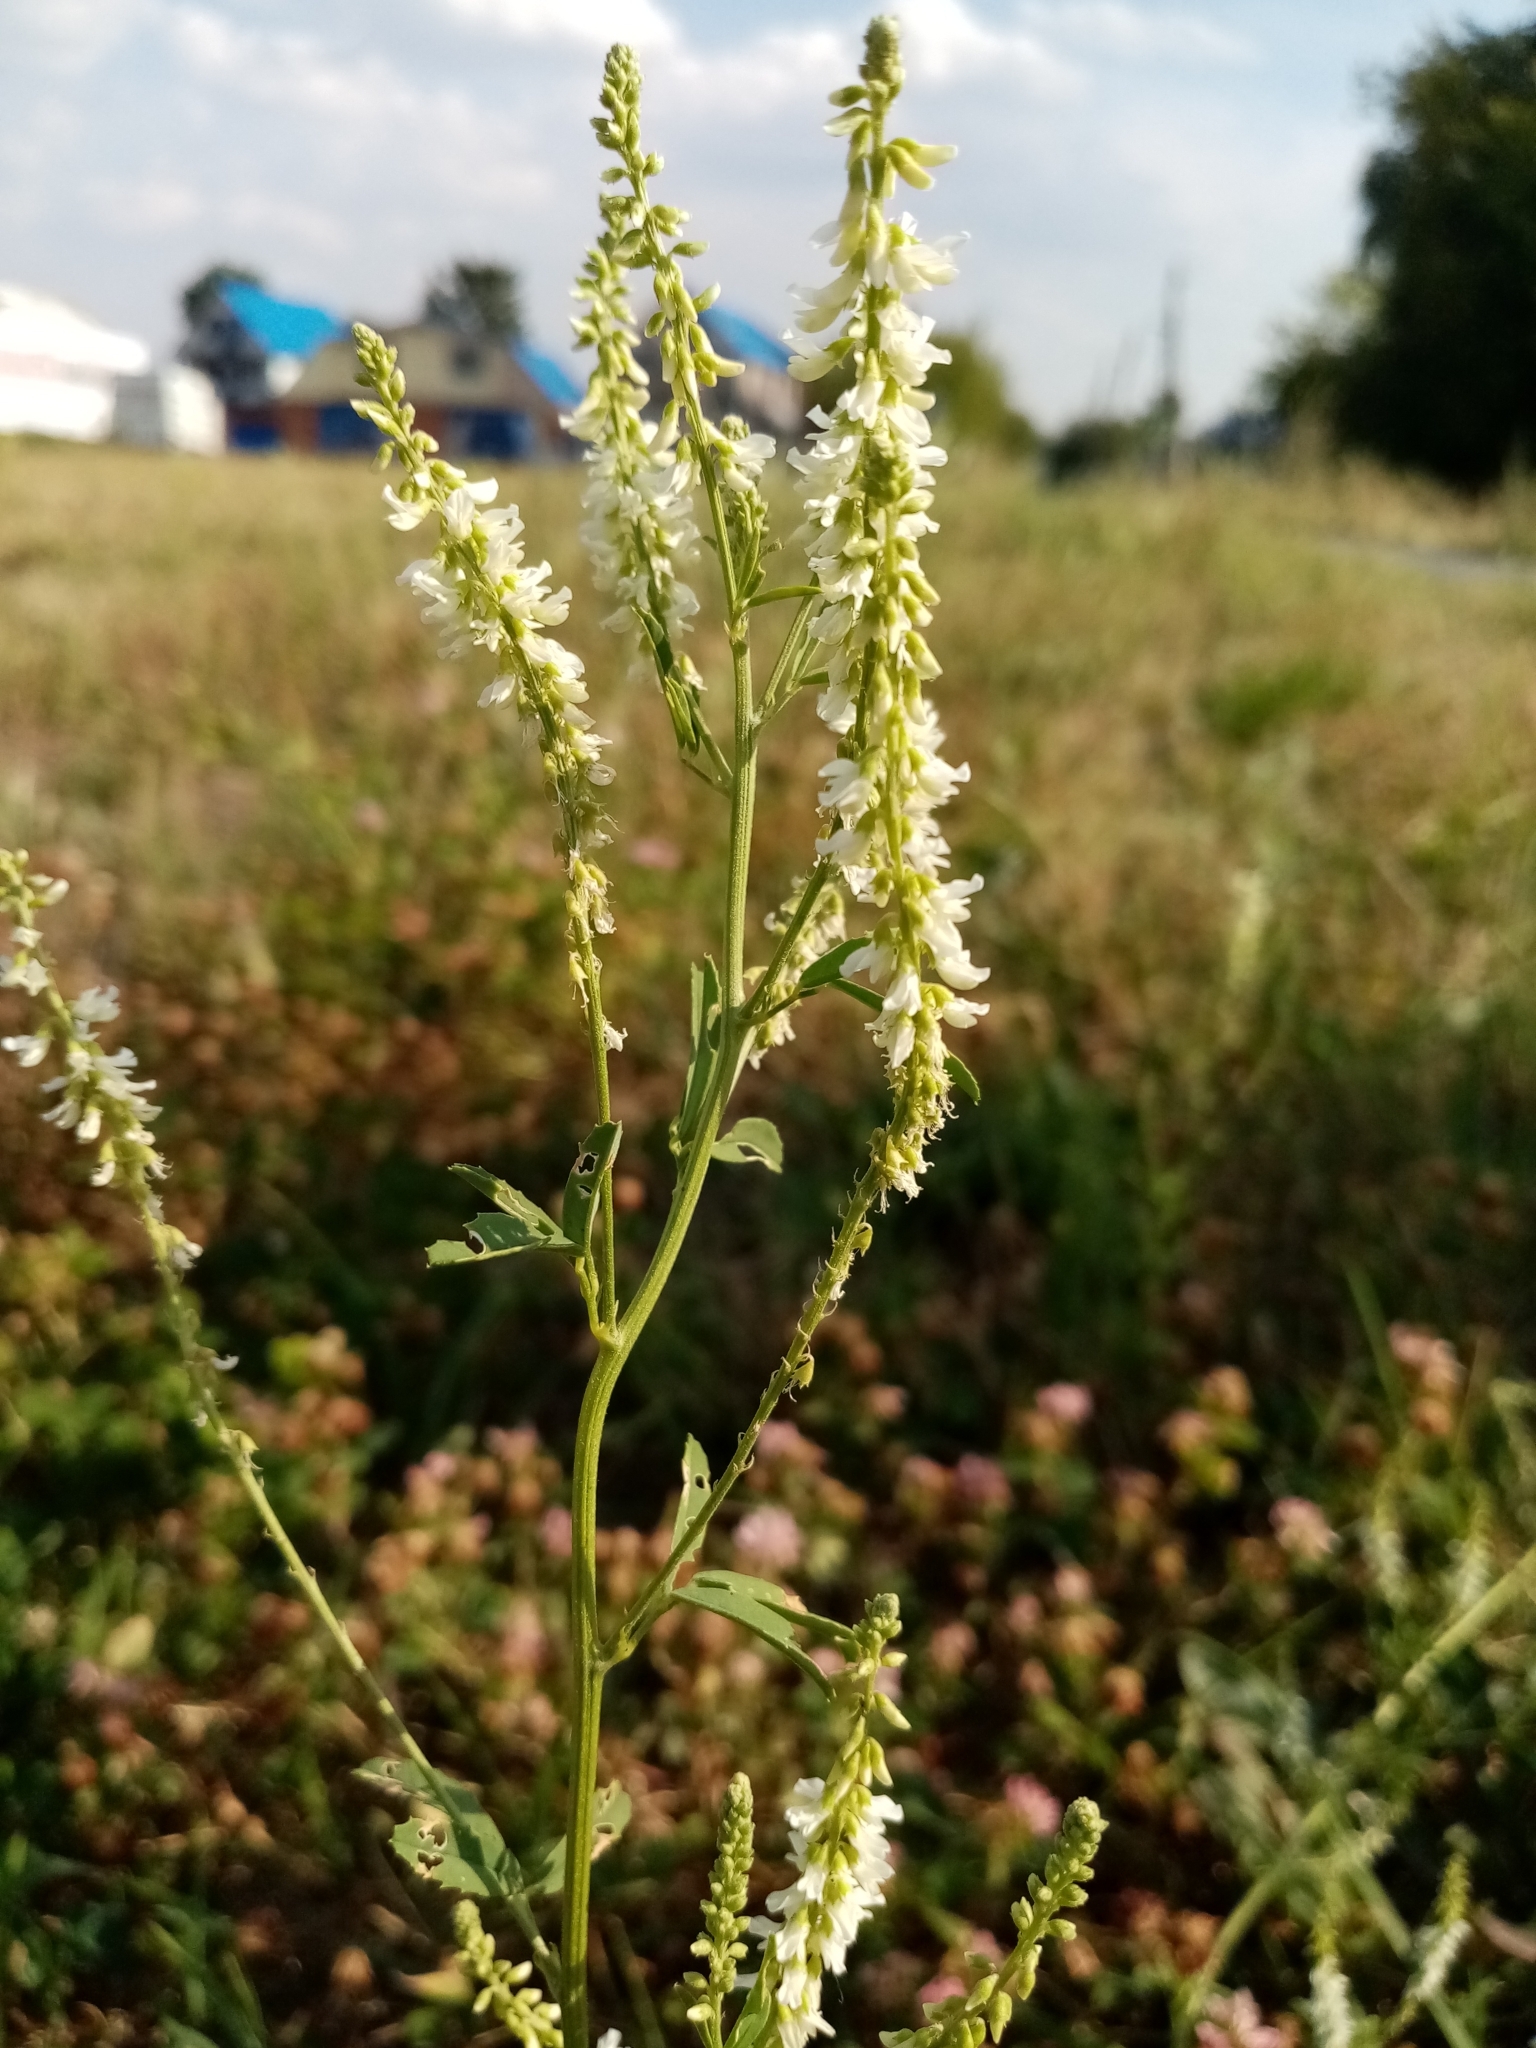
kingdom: Plantae
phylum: Tracheophyta
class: Magnoliopsida
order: Fabales
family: Fabaceae
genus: Melilotus
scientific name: Melilotus albus
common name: White melilot
